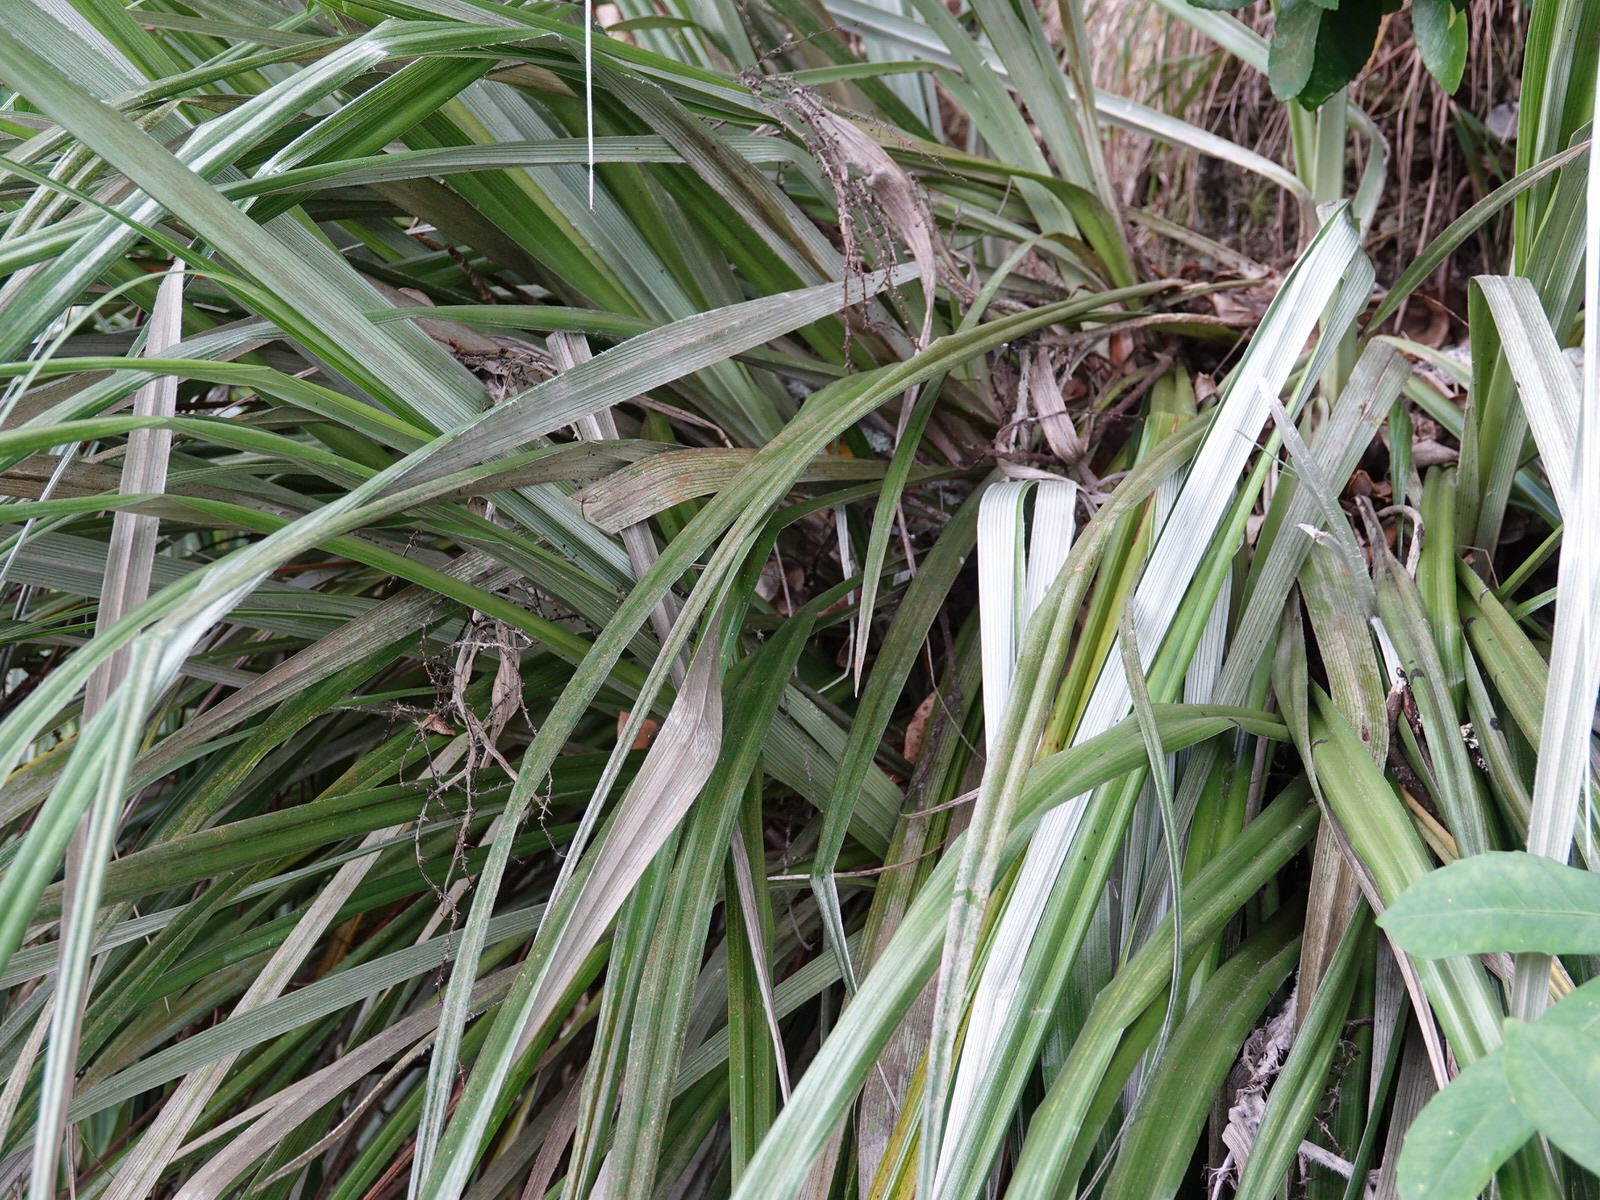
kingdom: Plantae
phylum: Tracheophyta
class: Liliopsida
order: Asparagales
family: Asteliaceae
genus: Astelia
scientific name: Astelia banksii
